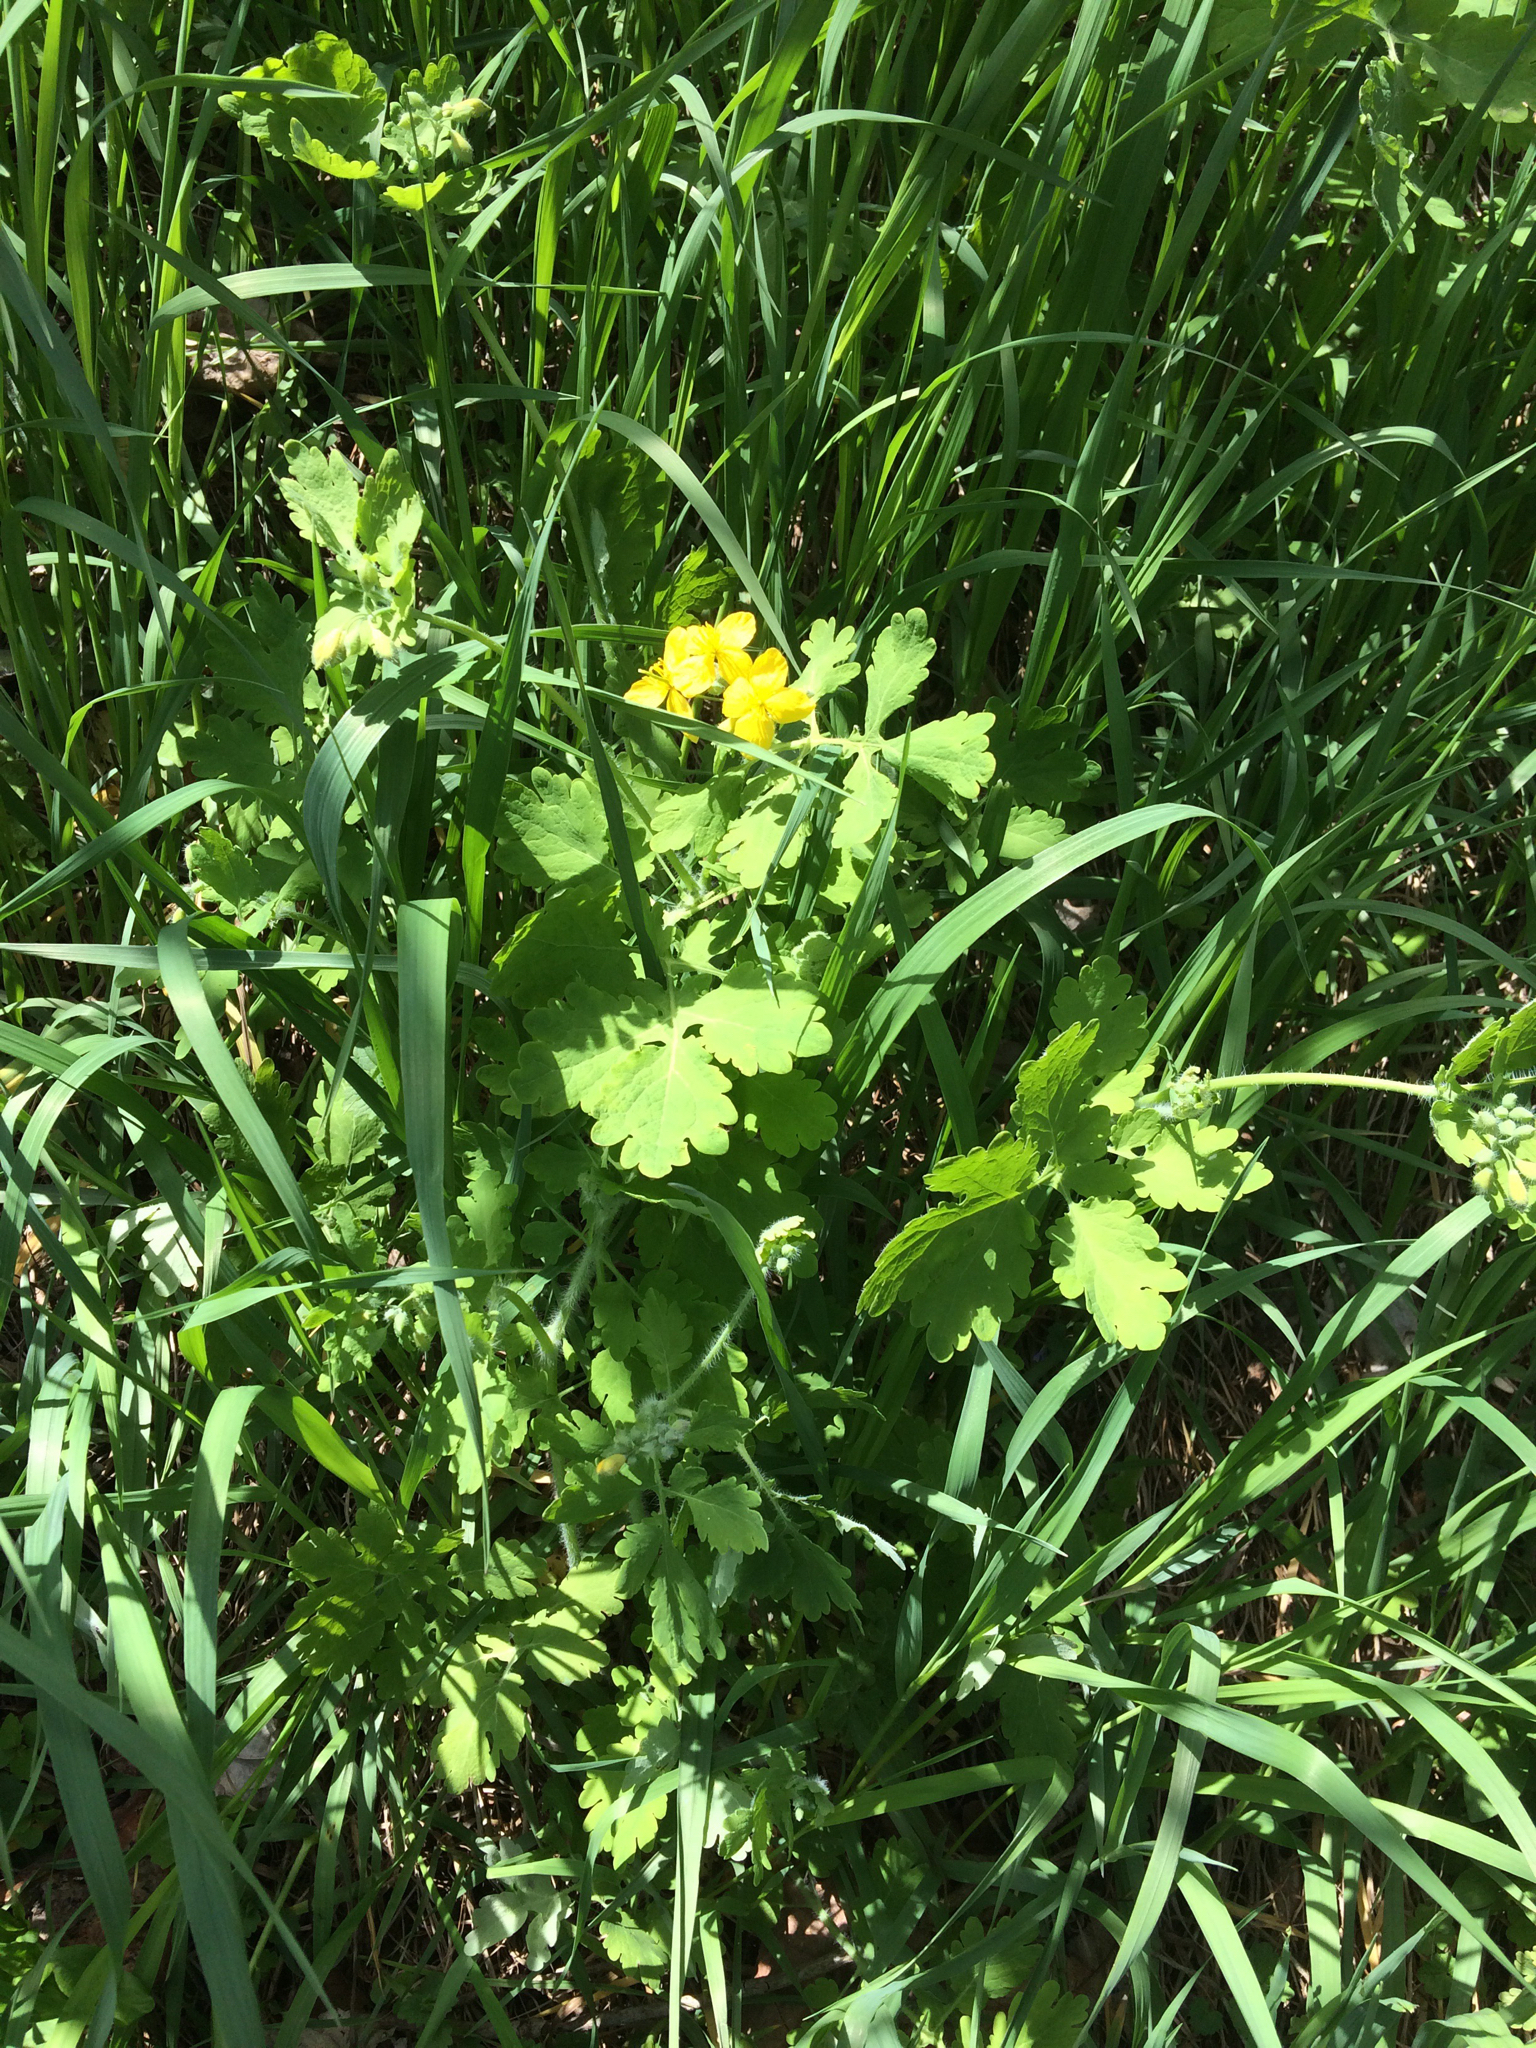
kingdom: Plantae
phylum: Tracheophyta
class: Magnoliopsida
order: Ranunculales
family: Papaveraceae
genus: Chelidonium
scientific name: Chelidonium majus
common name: Greater celandine
